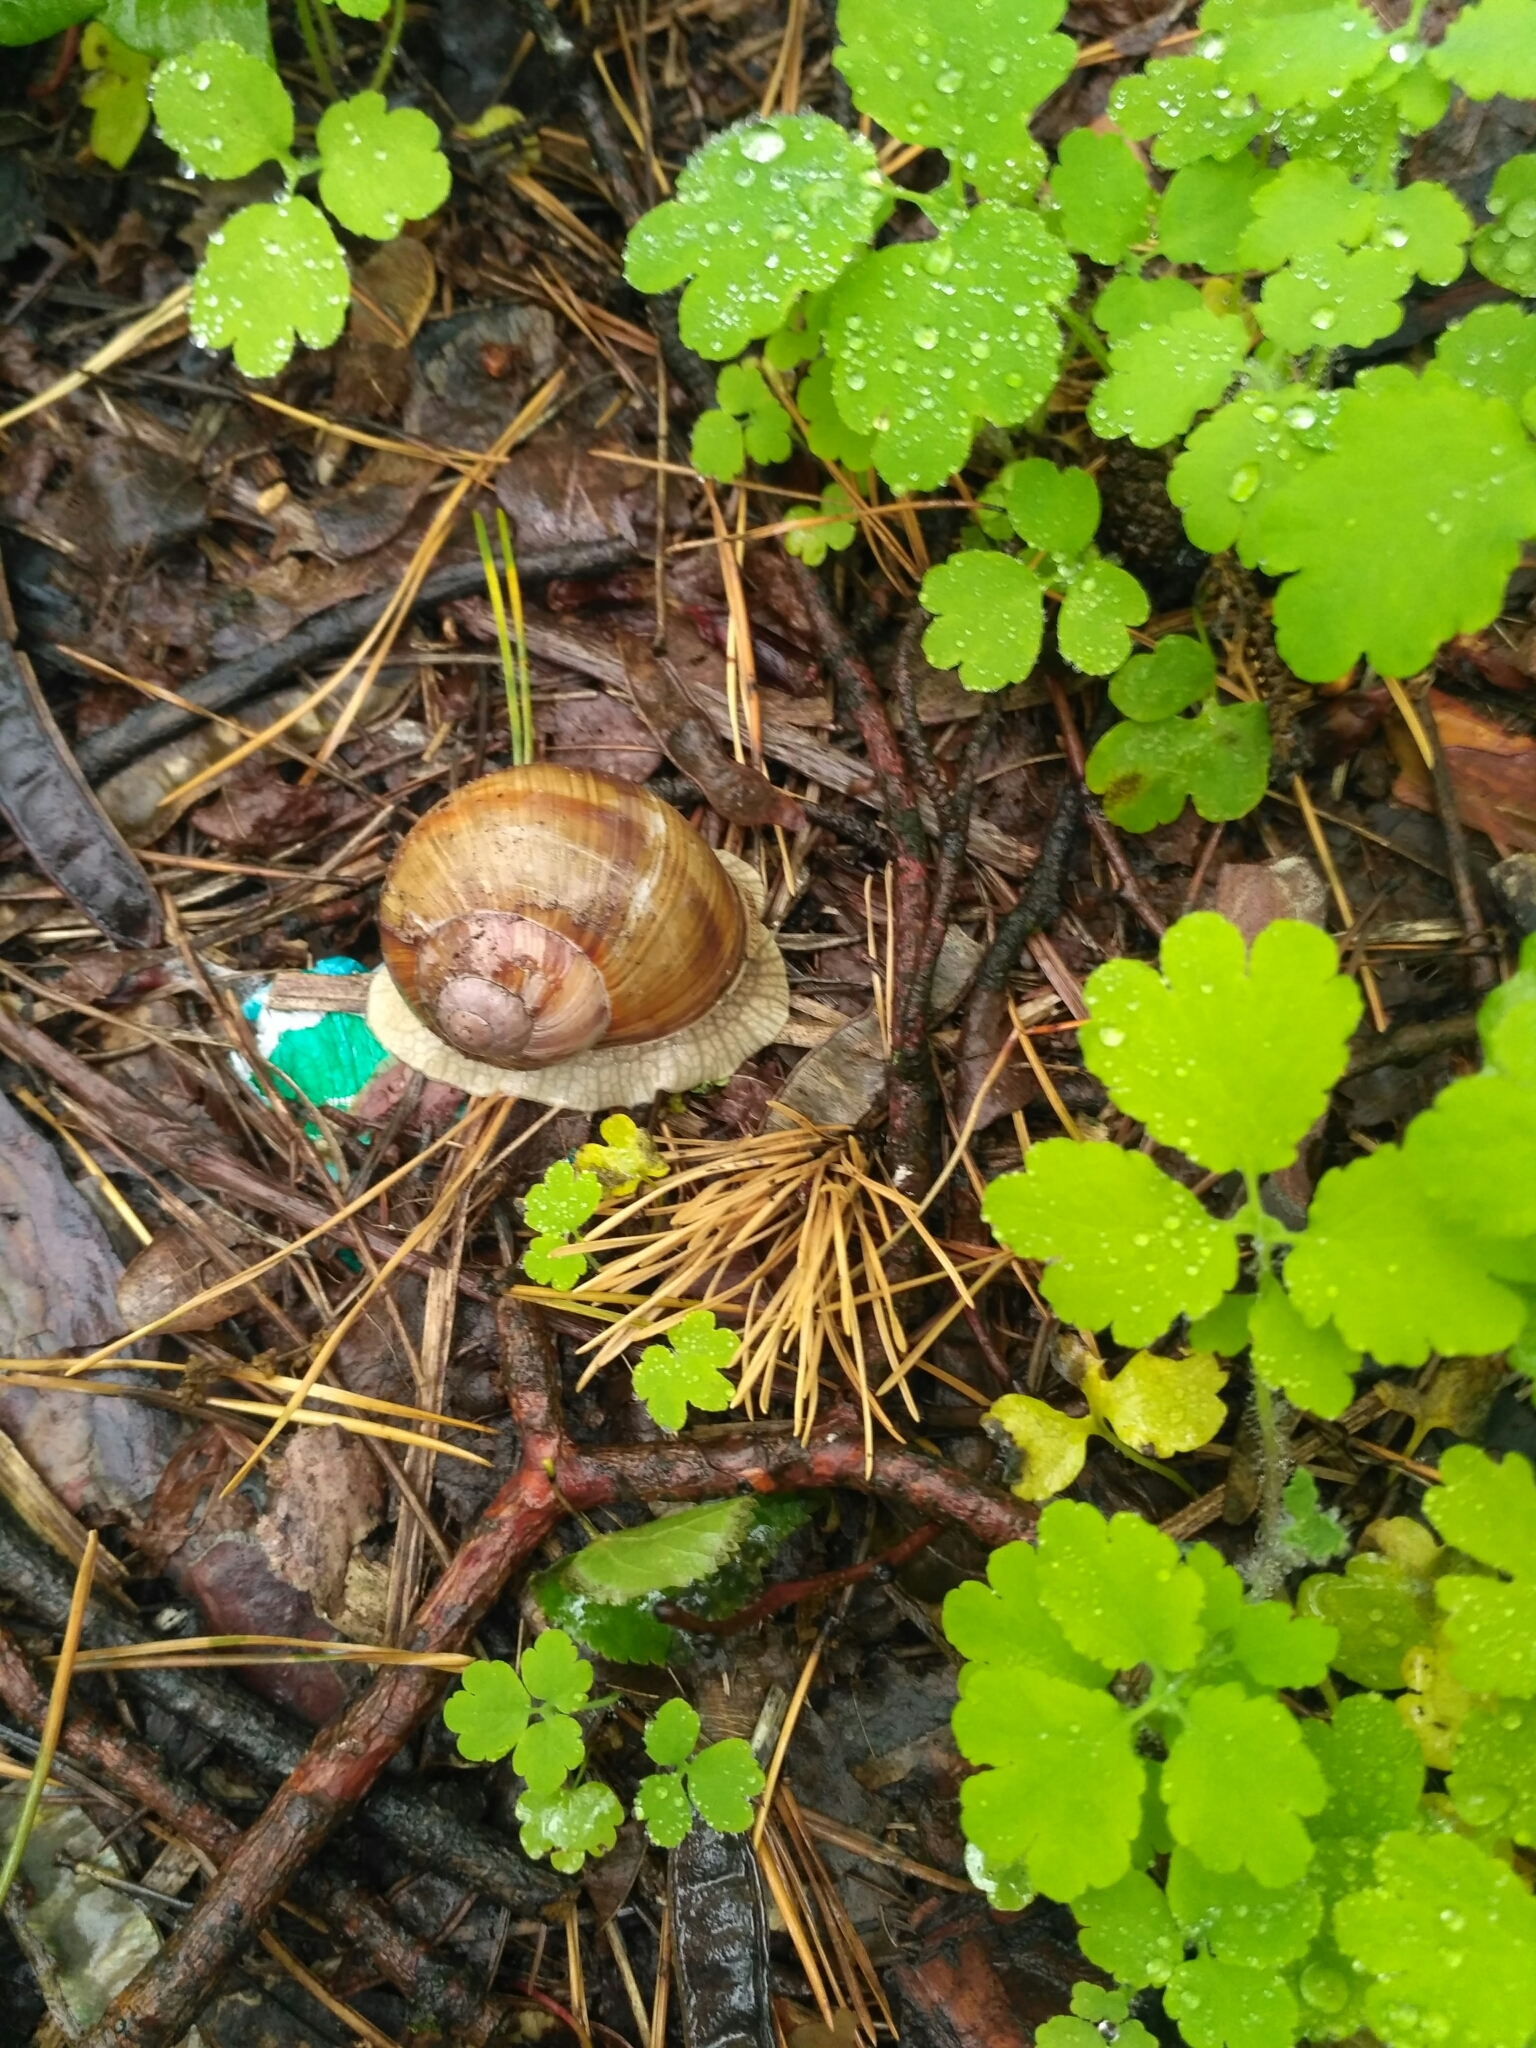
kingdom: Animalia
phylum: Mollusca
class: Gastropoda
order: Stylommatophora
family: Helicidae
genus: Helix
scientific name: Helix pomatia
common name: Roman snail
